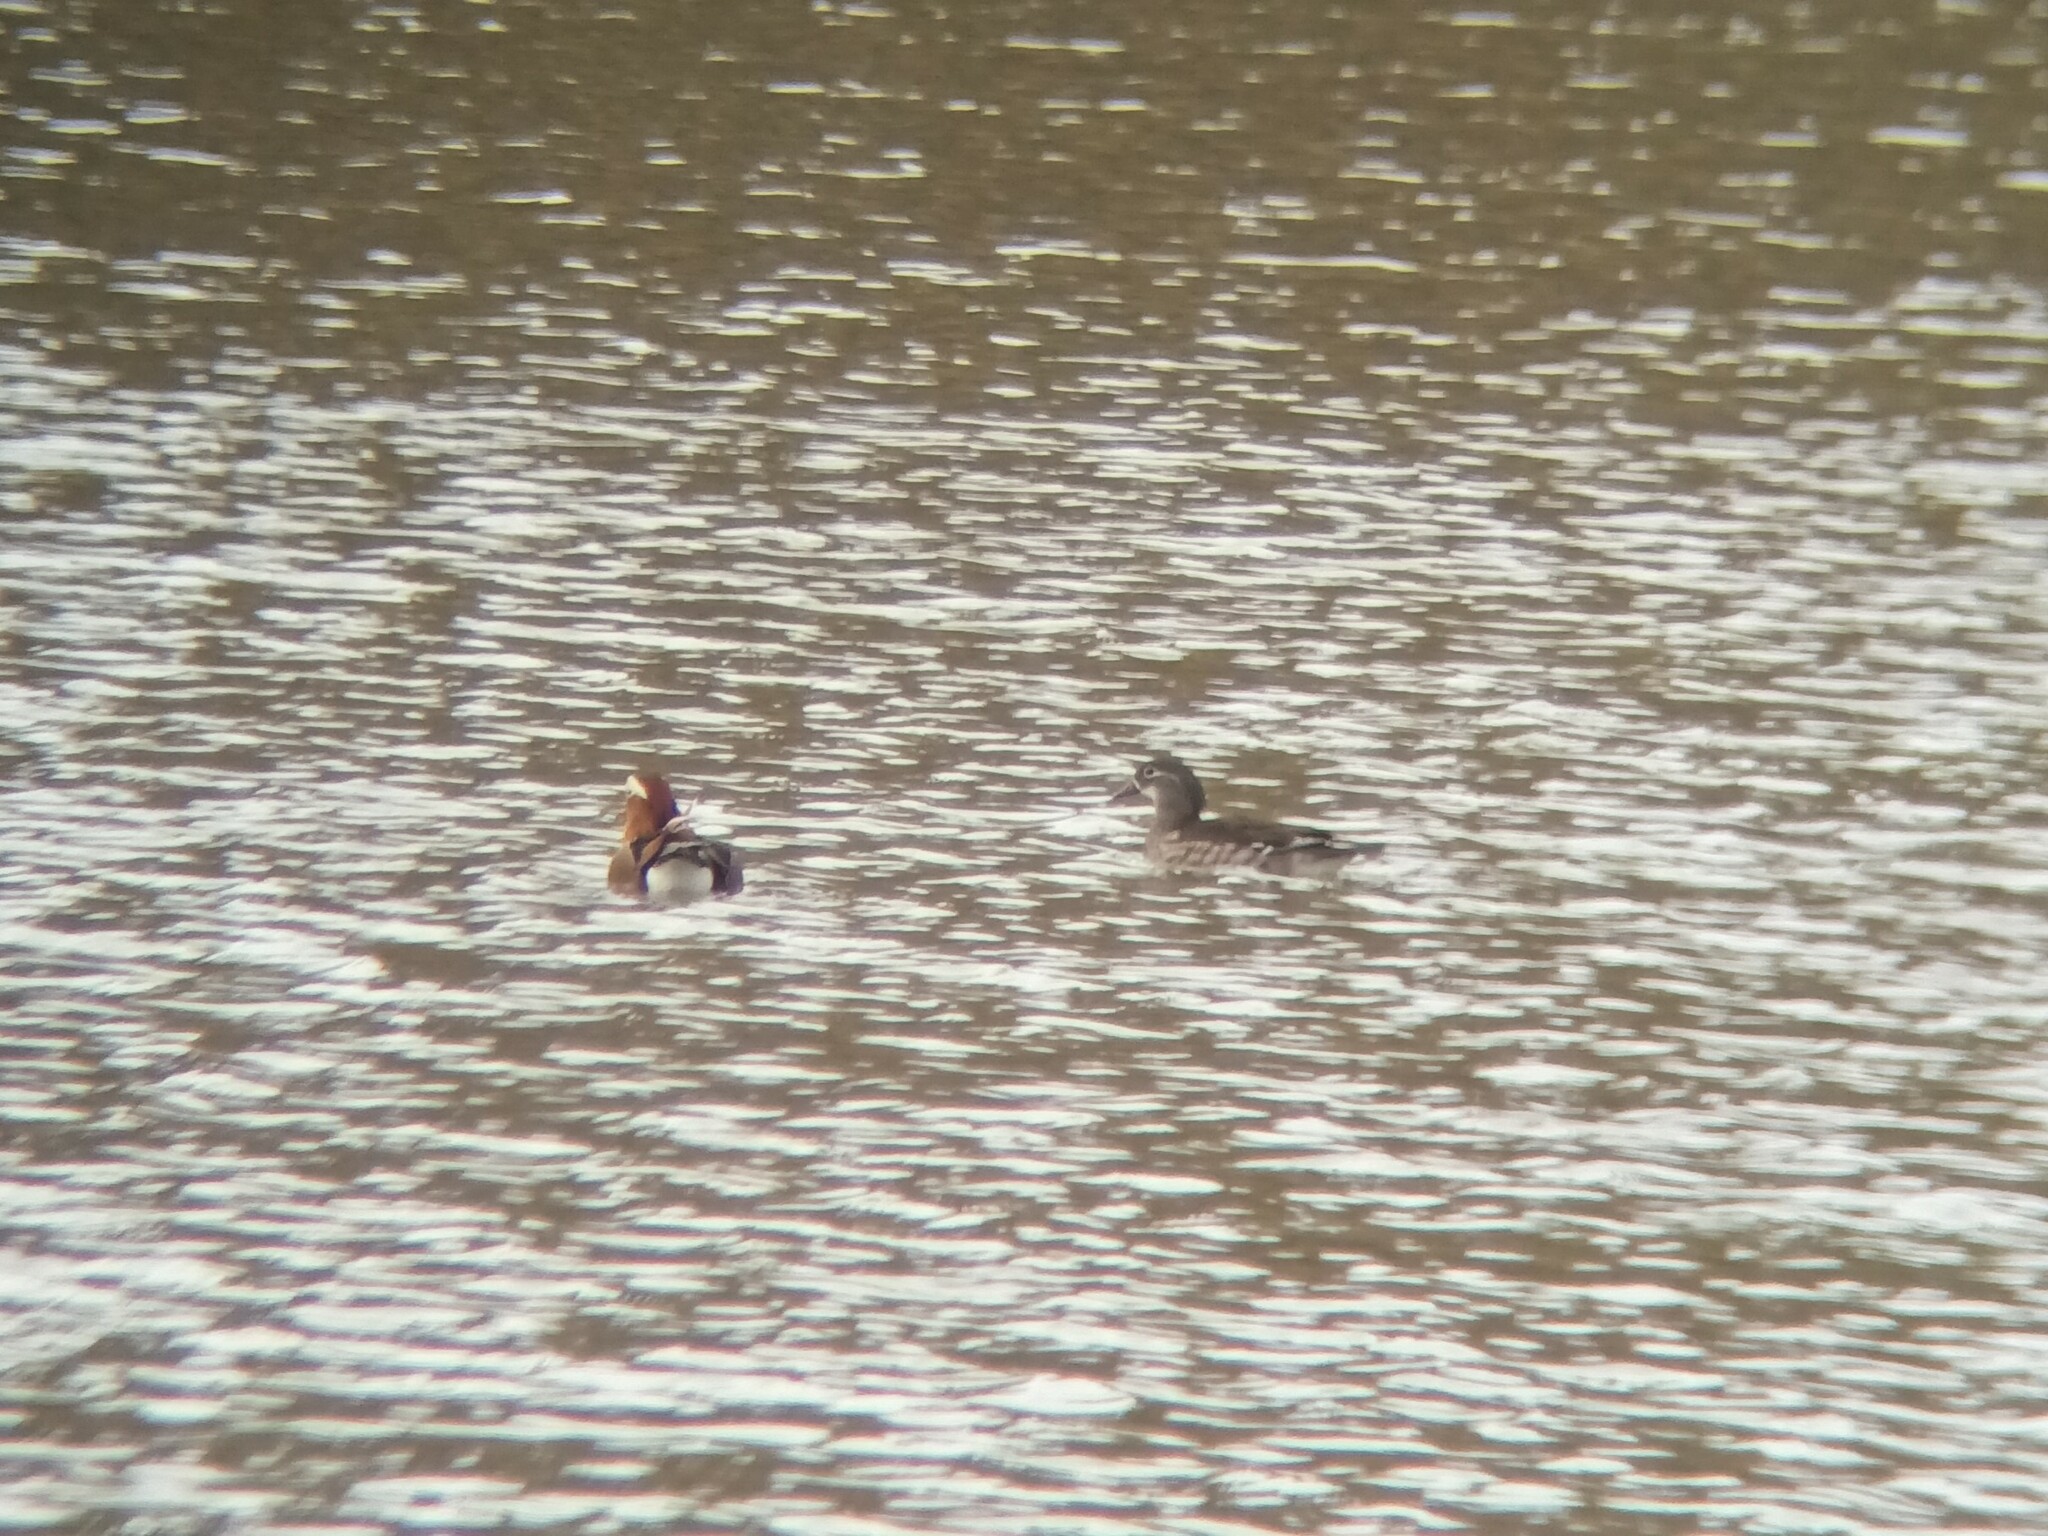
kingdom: Animalia
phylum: Chordata
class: Aves
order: Anseriformes
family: Anatidae
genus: Aix
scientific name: Aix galericulata
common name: Mandarin duck
